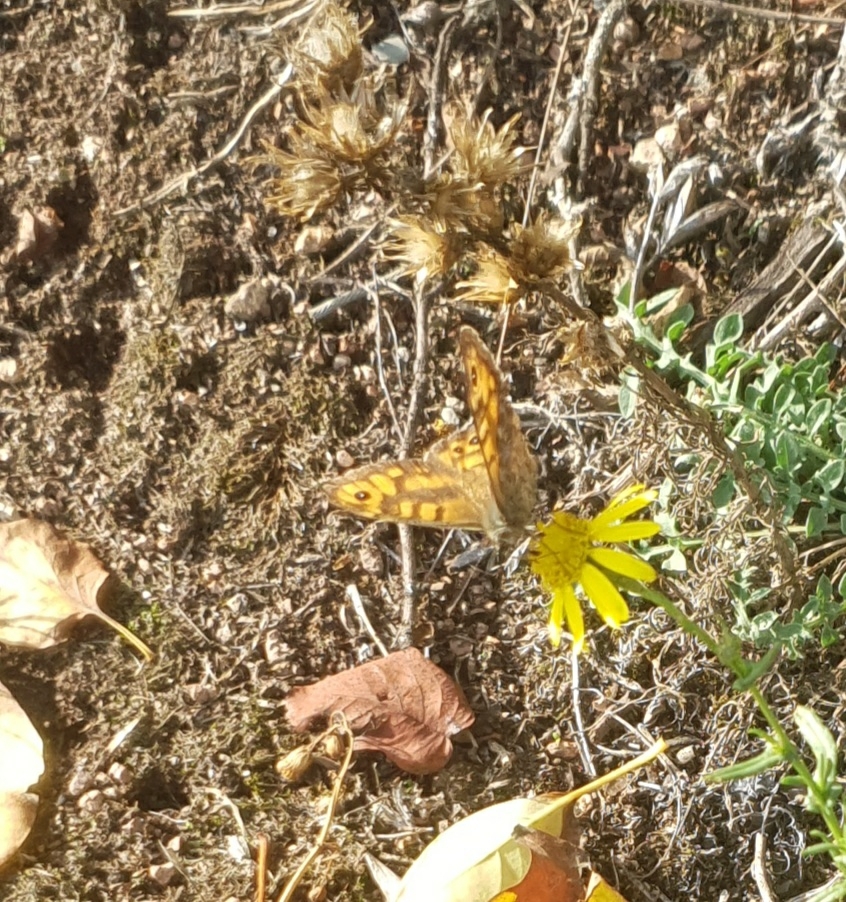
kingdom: Animalia
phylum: Arthropoda
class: Insecta
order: Lepidoptera
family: Nymphalidae
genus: Pararge
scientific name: Pararge Lasiommata megera
